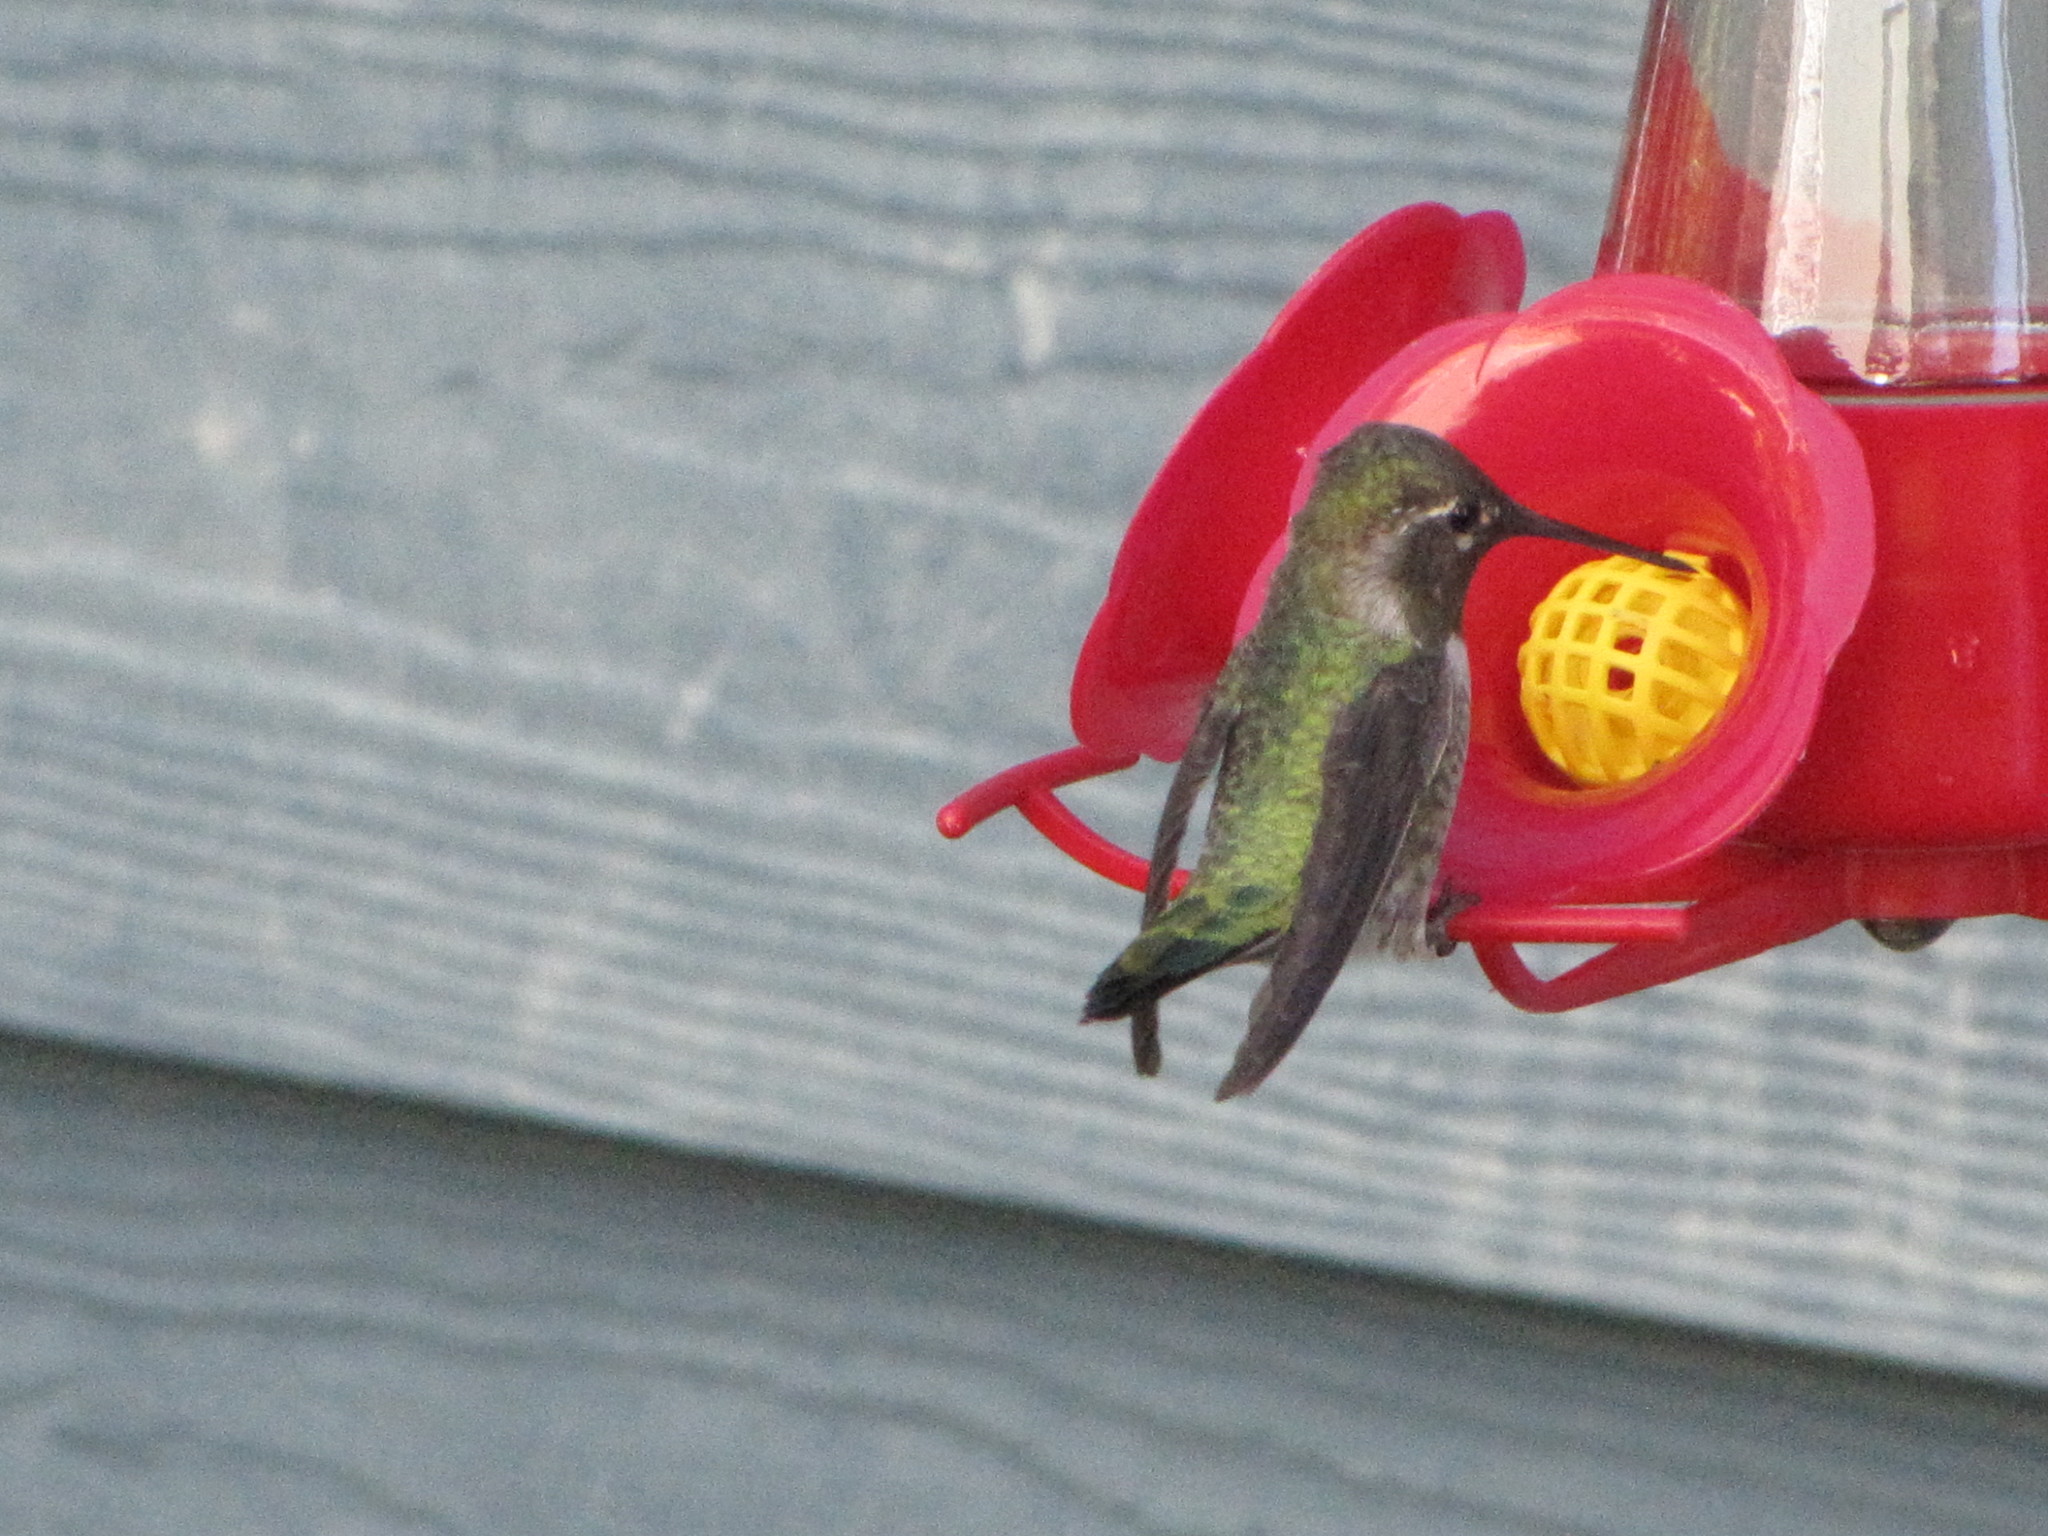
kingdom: Animalia
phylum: Chordata
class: Aves
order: Apodiformes
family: Trochilidae
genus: Calypte
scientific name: Calypte anna
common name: Anna's hummingbird
